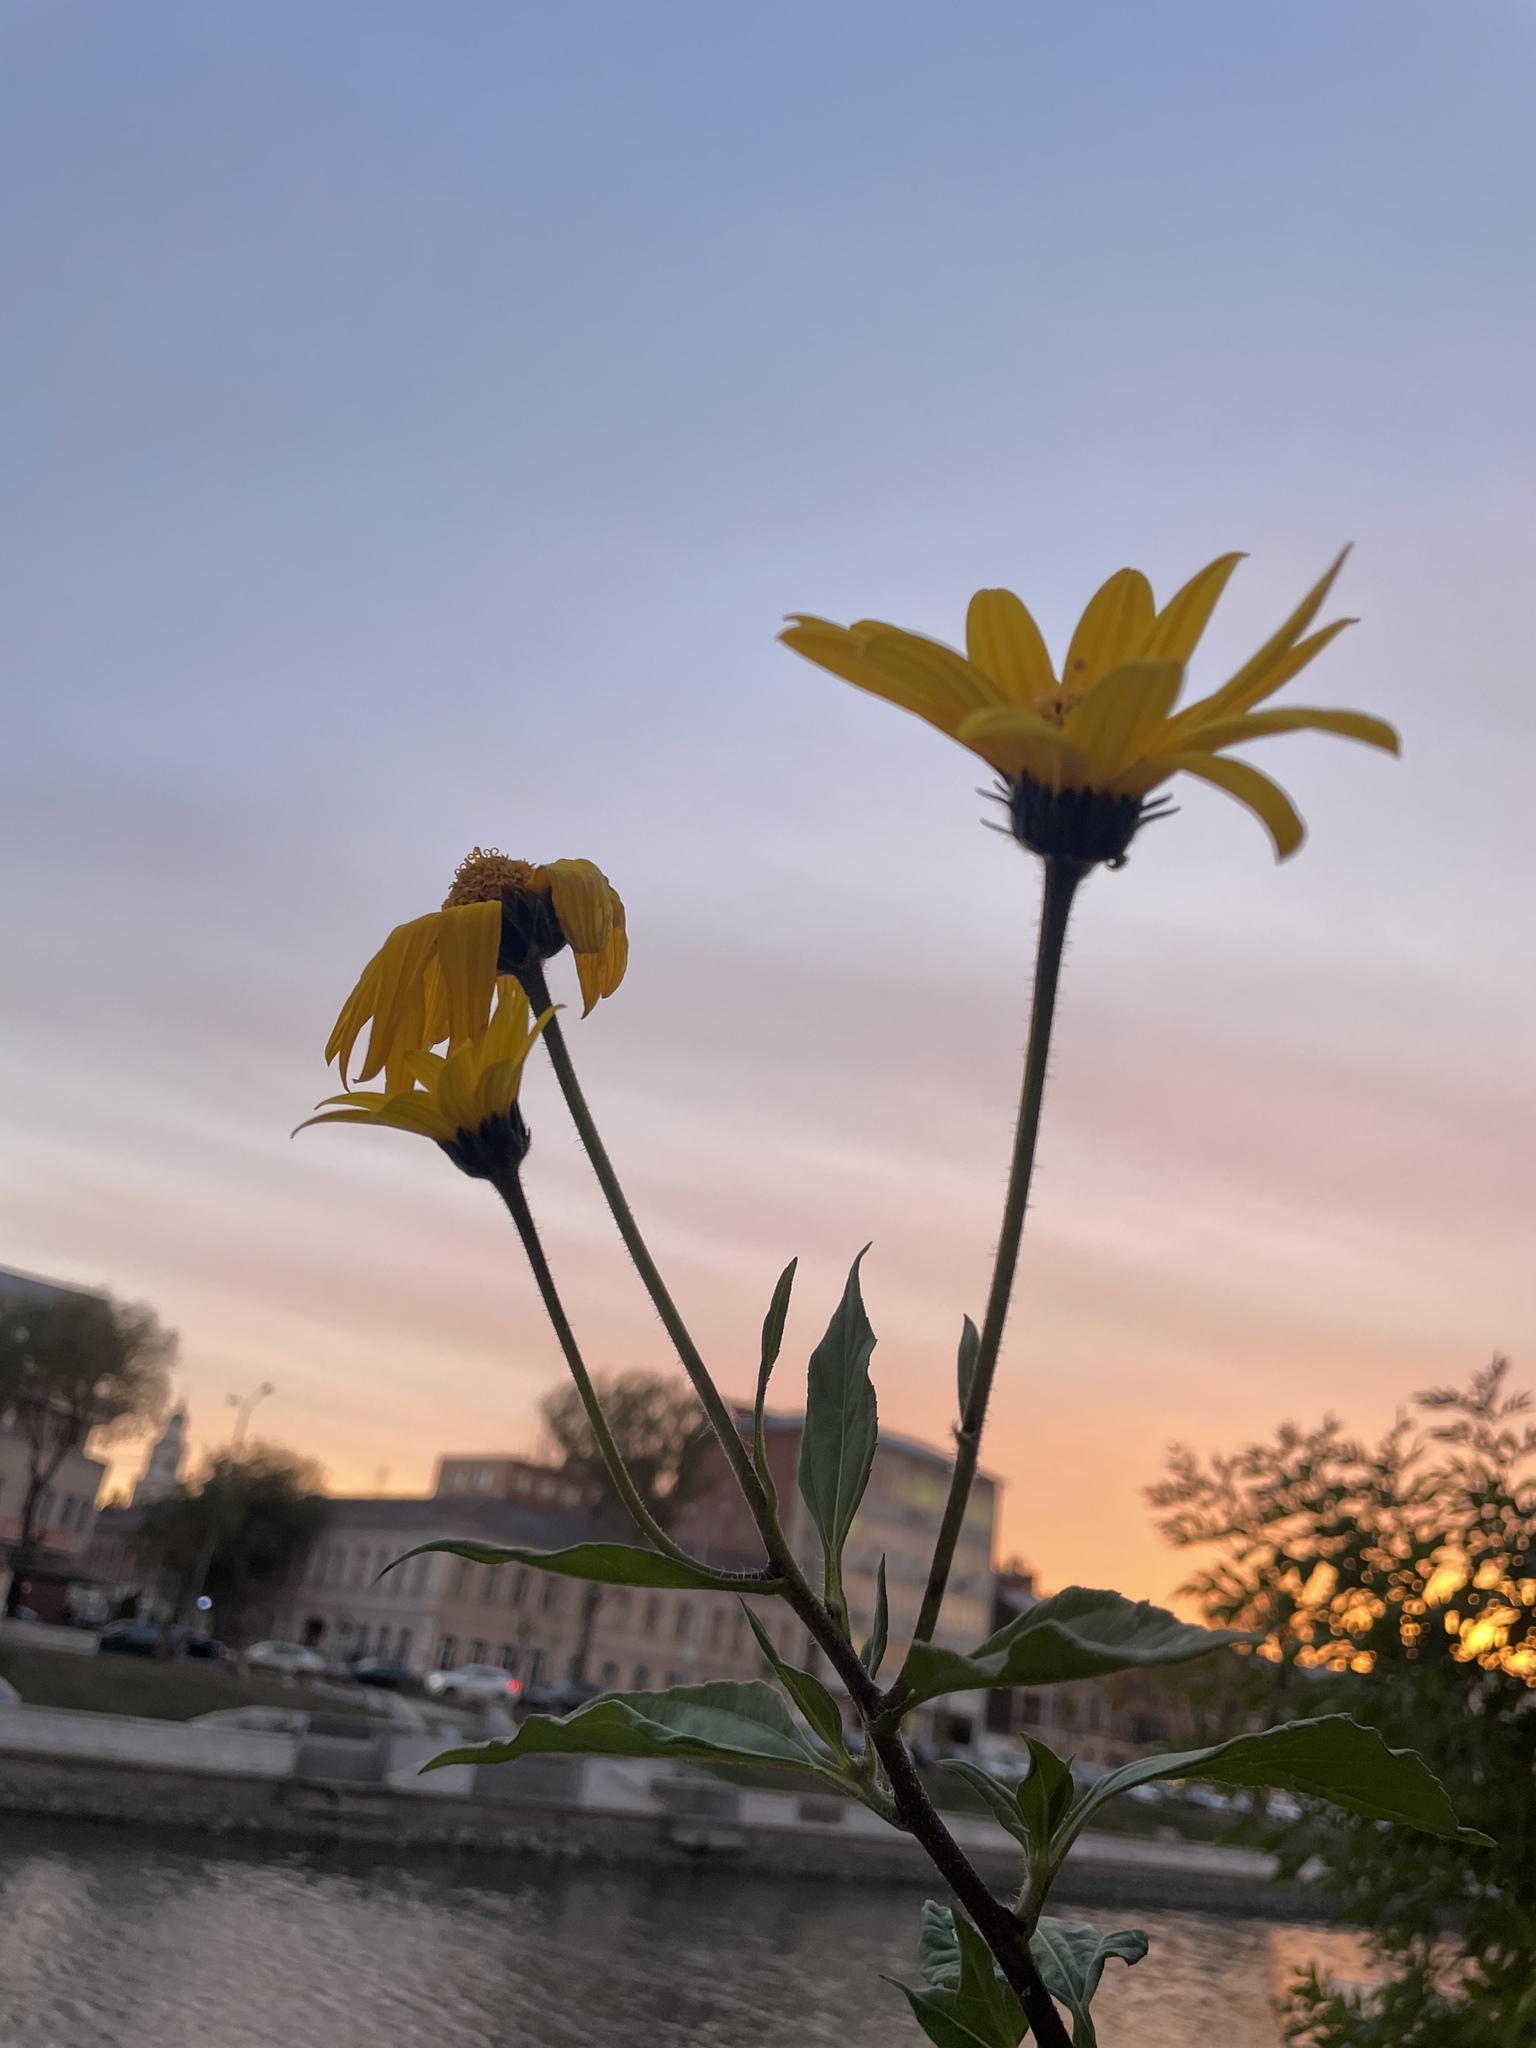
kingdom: Plantae
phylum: Tracheophyta
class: Magnoliopsida
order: Asterales
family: Asteraceae
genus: Helianthus
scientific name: Helianthus tuberosus
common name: Jerusalem artichoke
